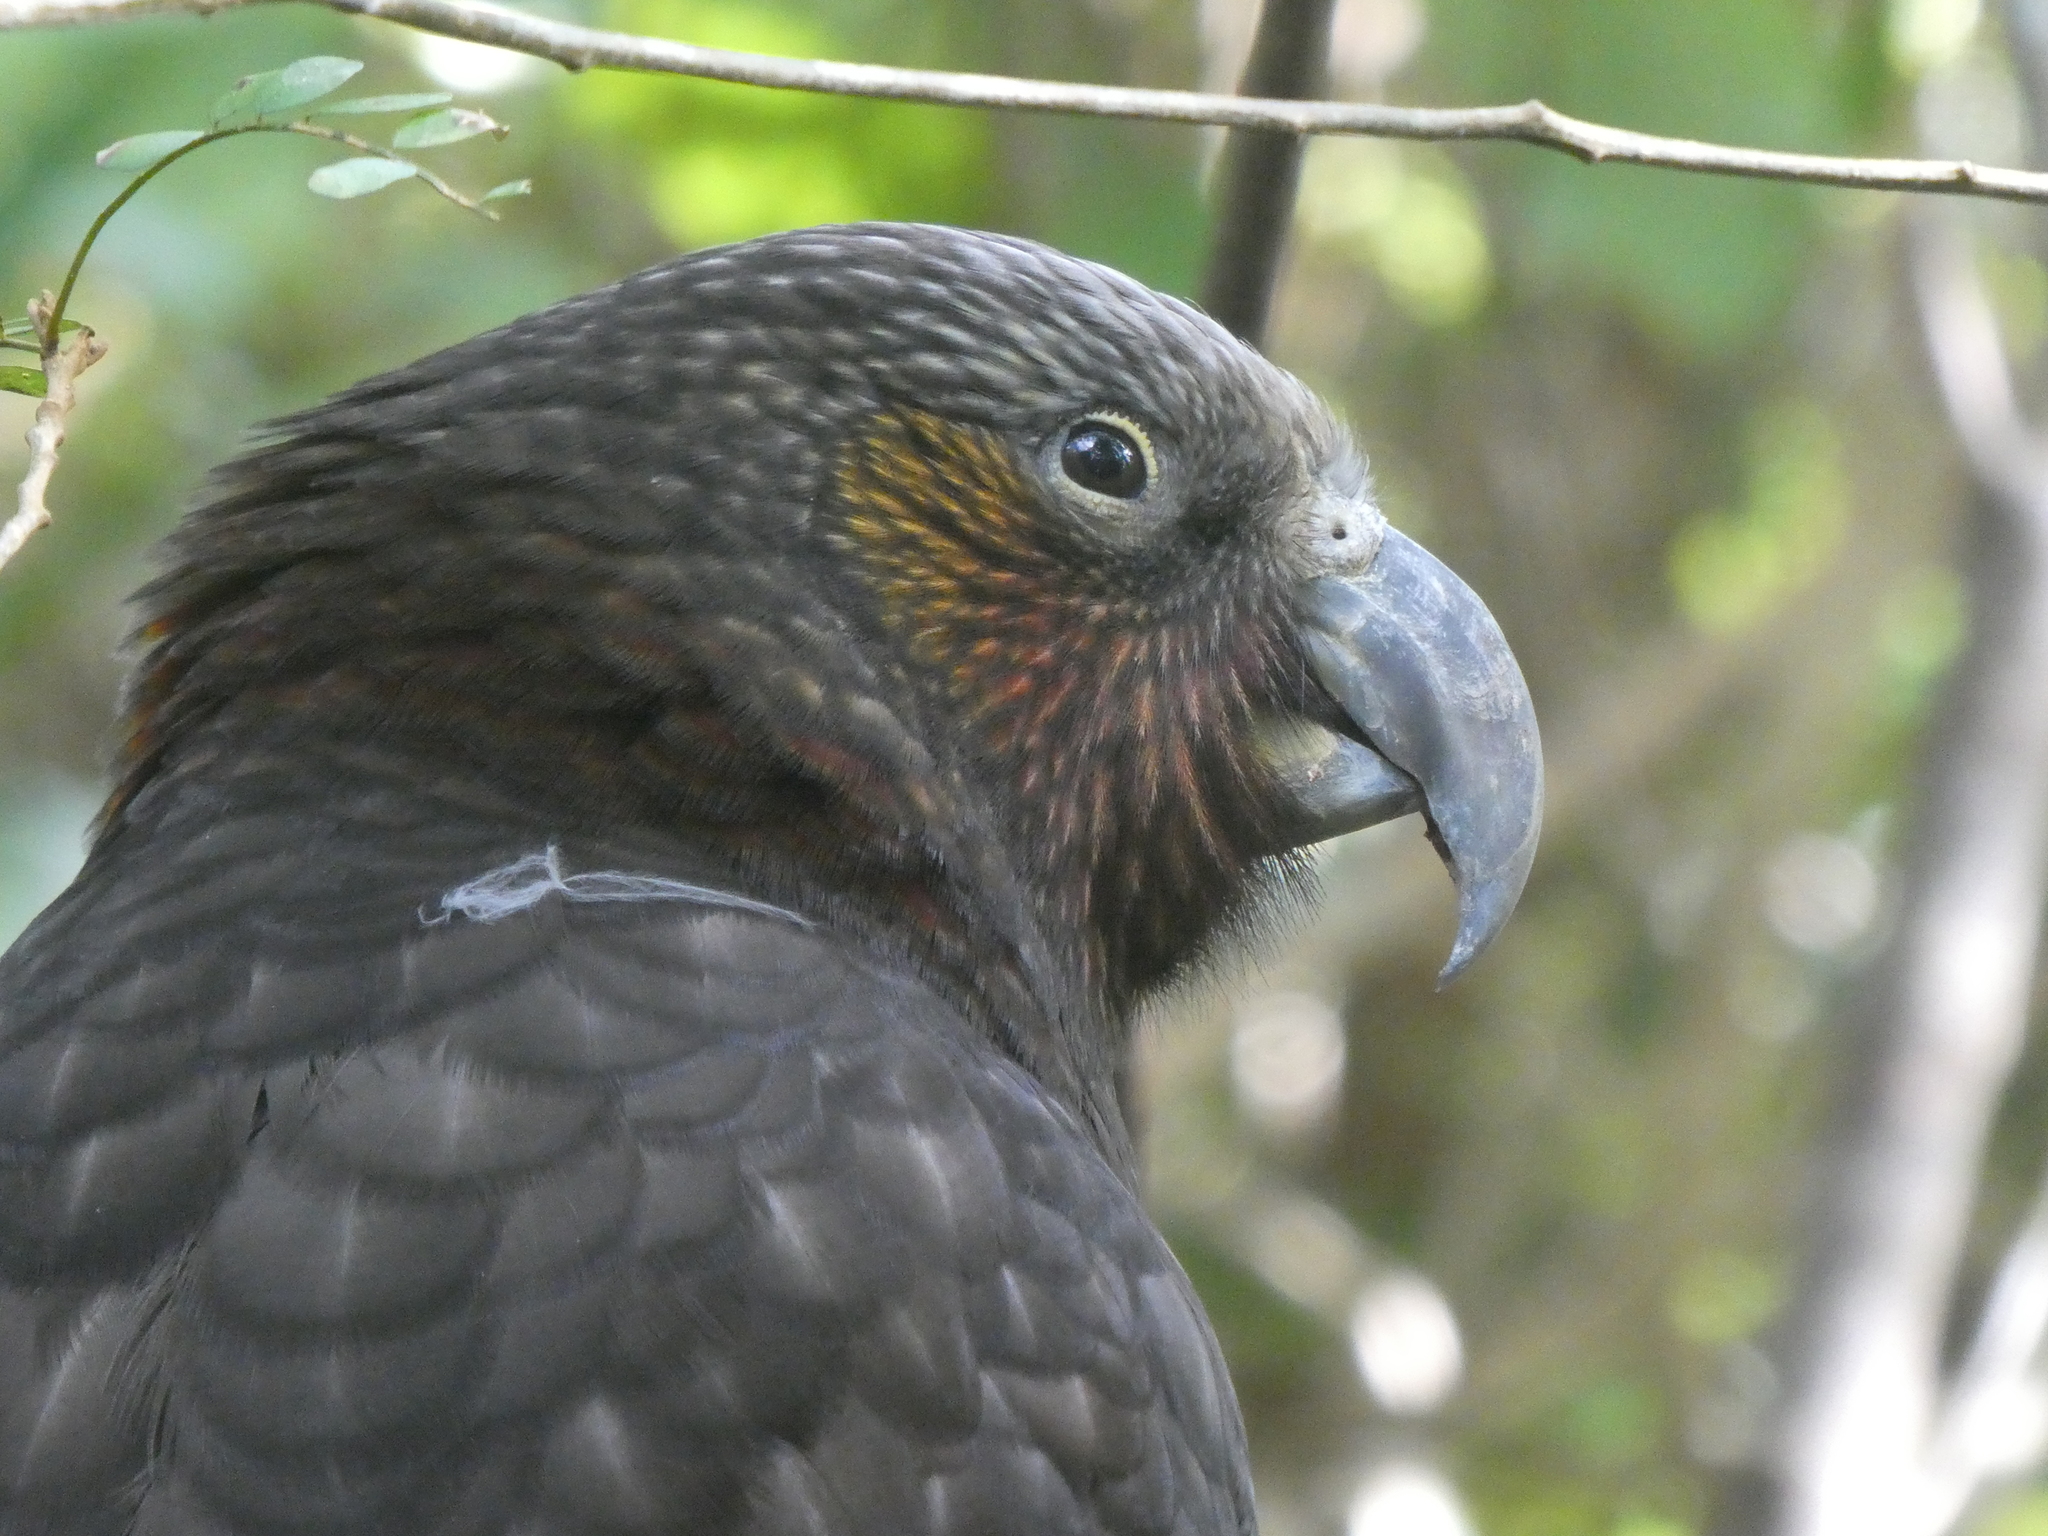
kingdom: Animalia
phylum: Chordata
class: Aves
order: Psittaciformes
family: Psittacidae
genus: Nestor
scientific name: Nestor meridionalis
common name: New zealand kaka
